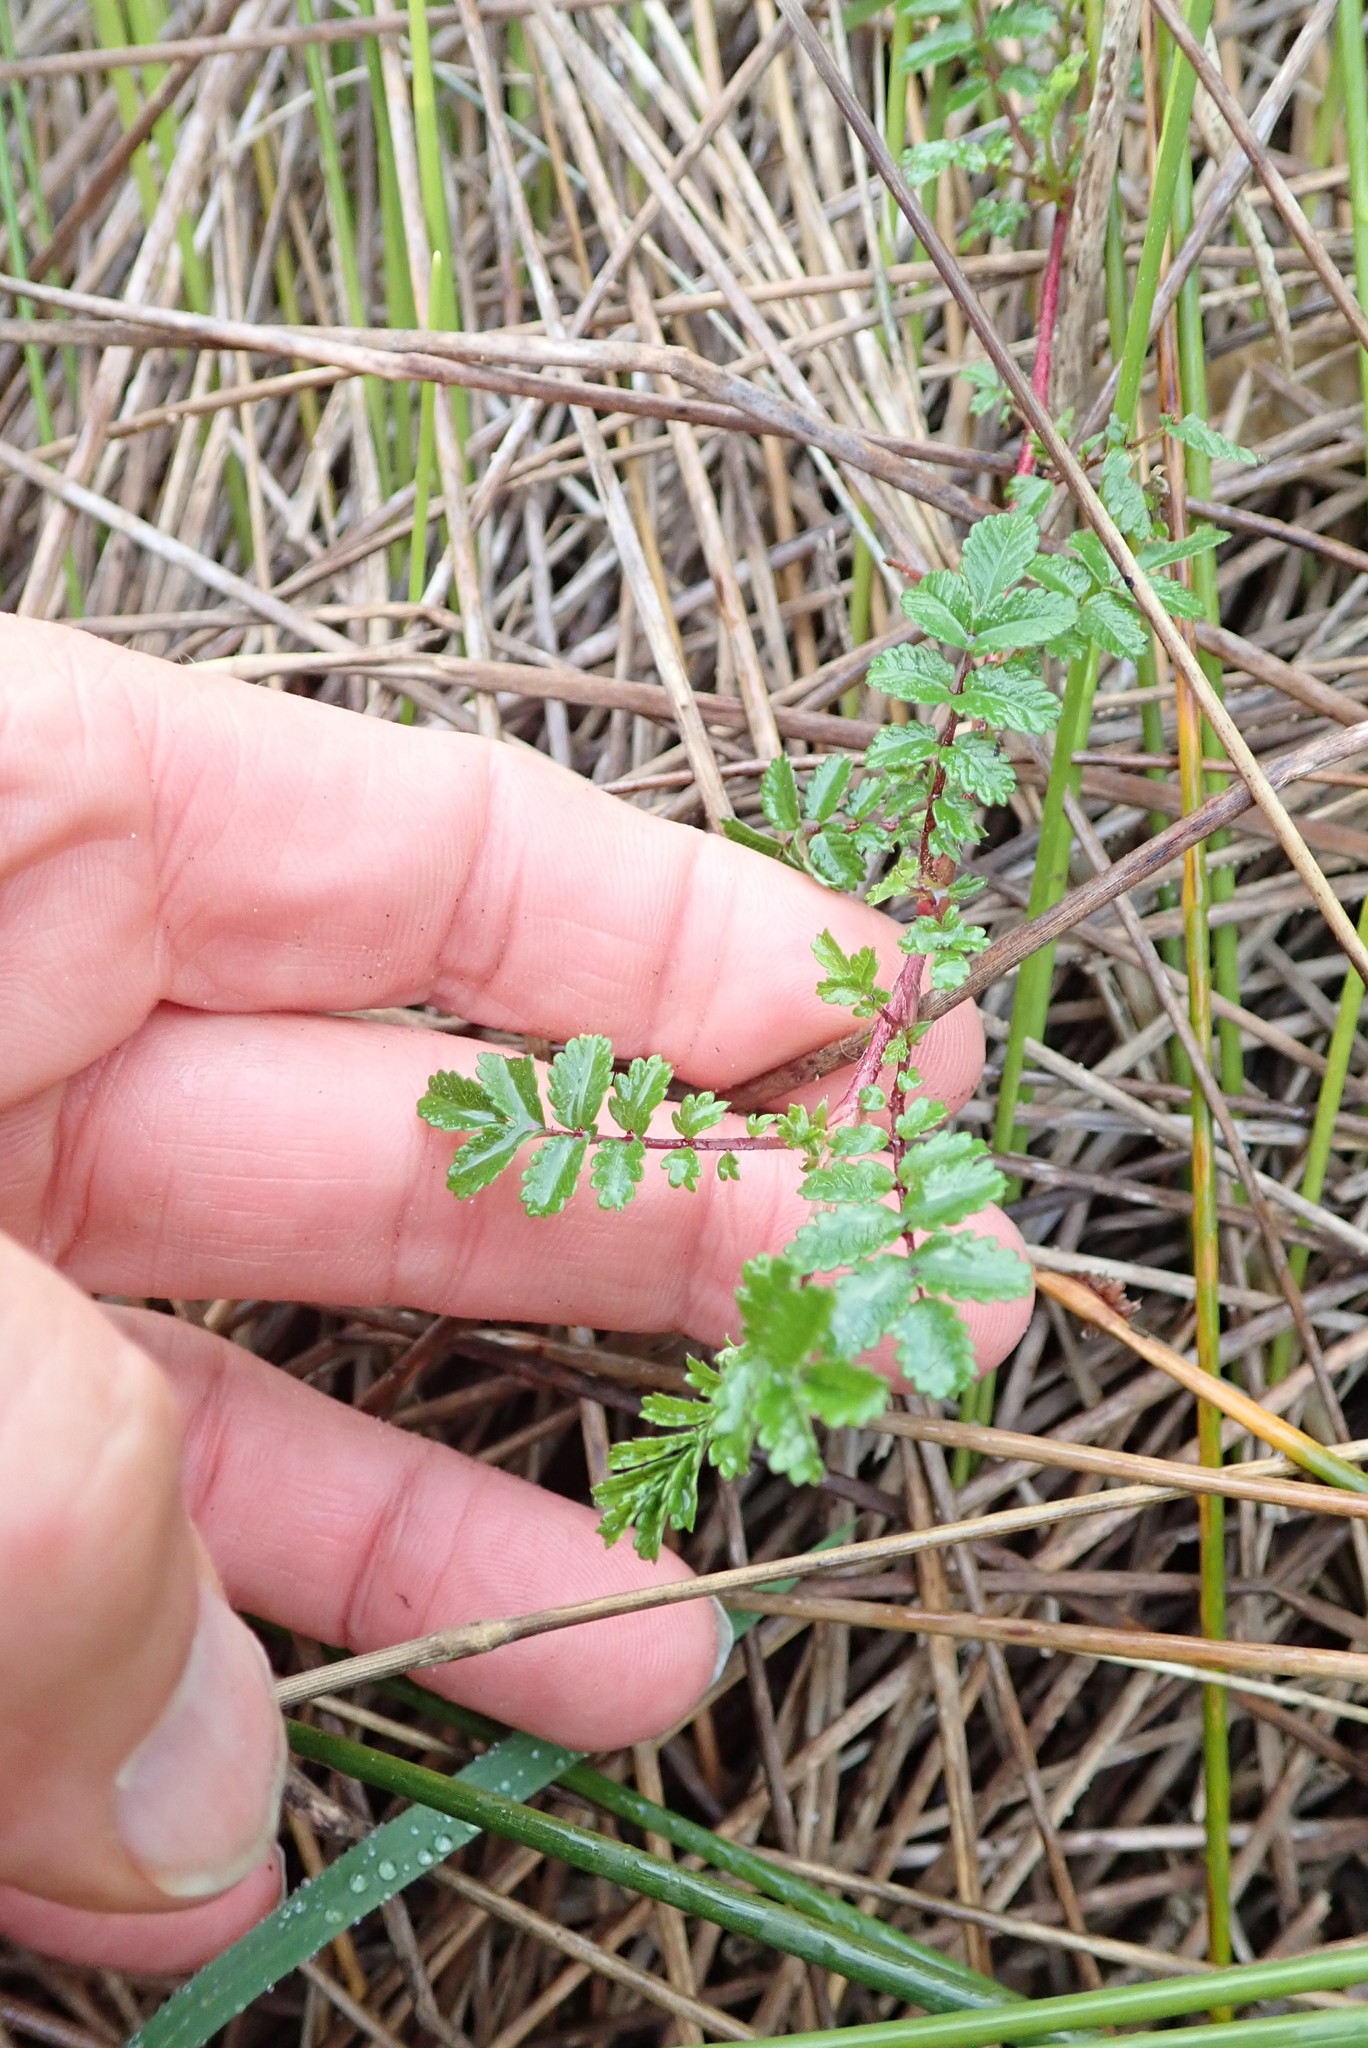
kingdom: Plantae
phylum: Tracheophyta
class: Magnoliopsida
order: Rosales
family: Rosaceae
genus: Acaena
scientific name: Acaena novae-zelandiae
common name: Pirri-pirri-bur
